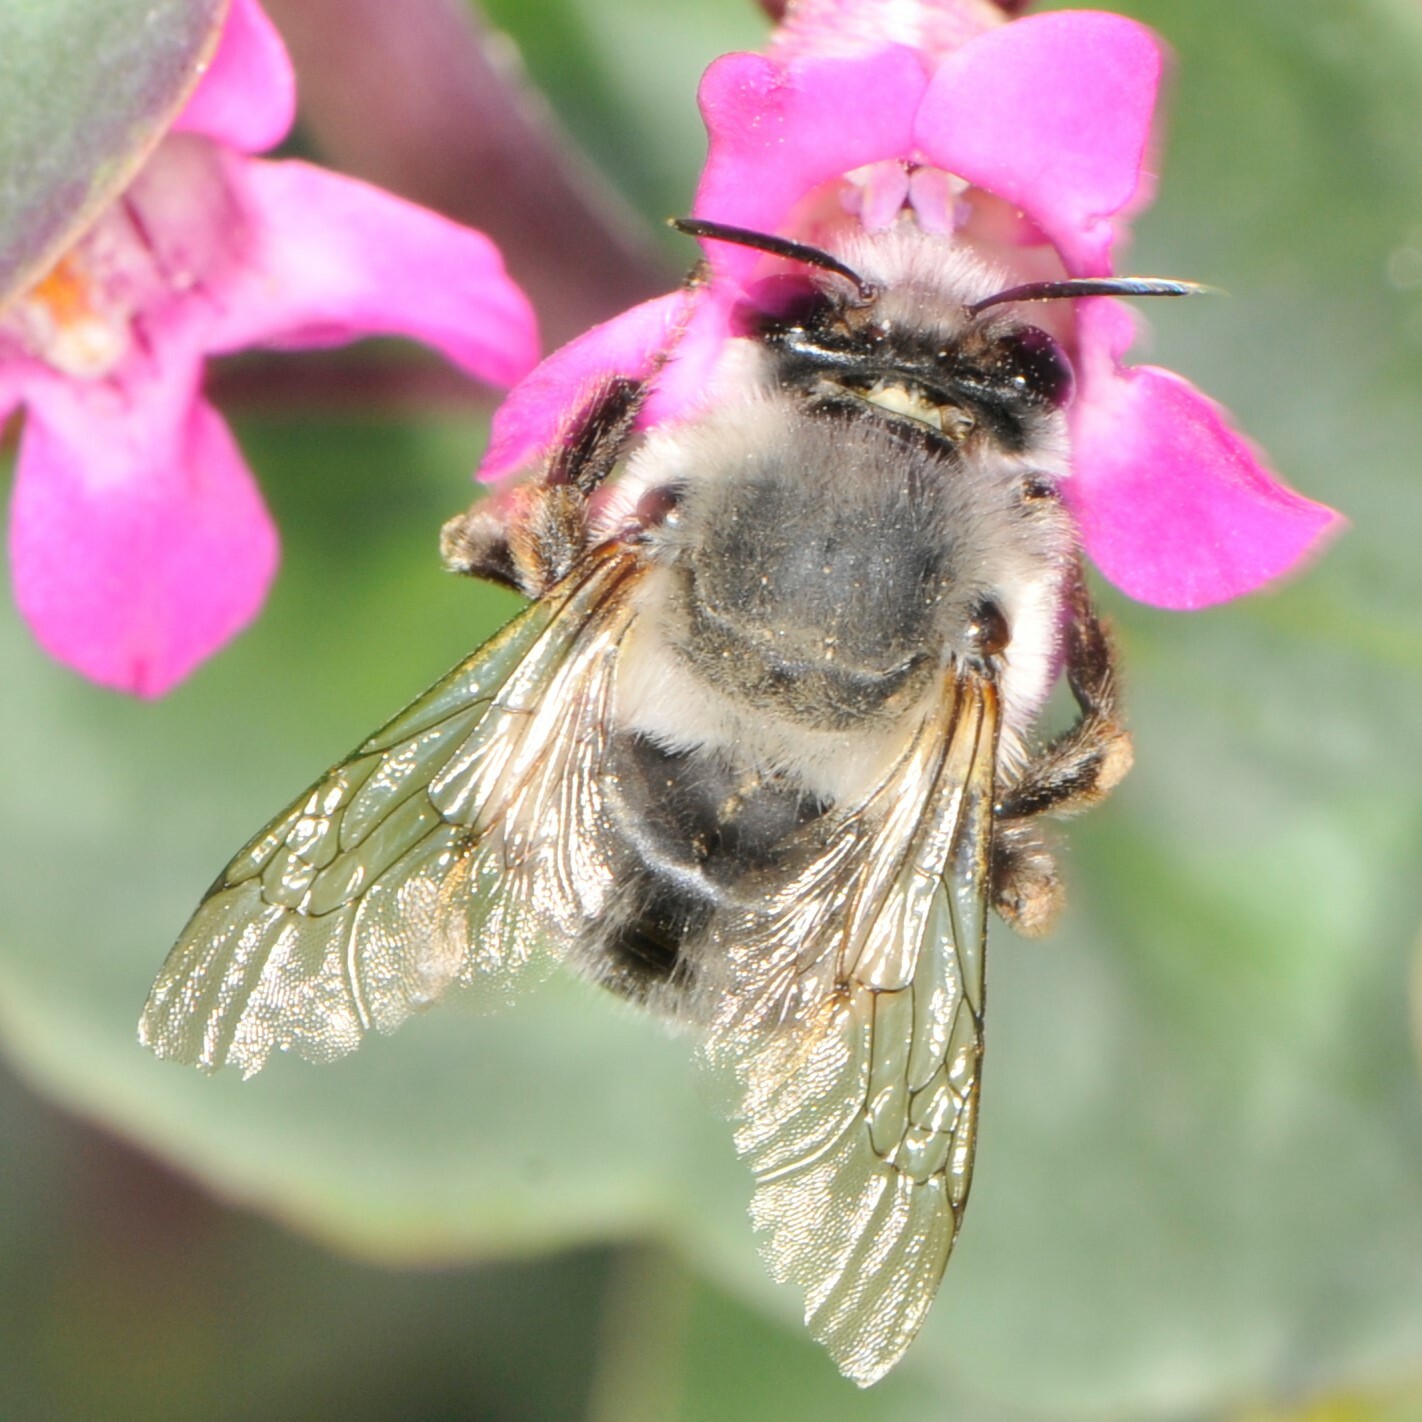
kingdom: Animalia
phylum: Arthropoda
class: Insecta
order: Hymenoptera
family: Apidae
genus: Anthophora
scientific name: Anthophora
